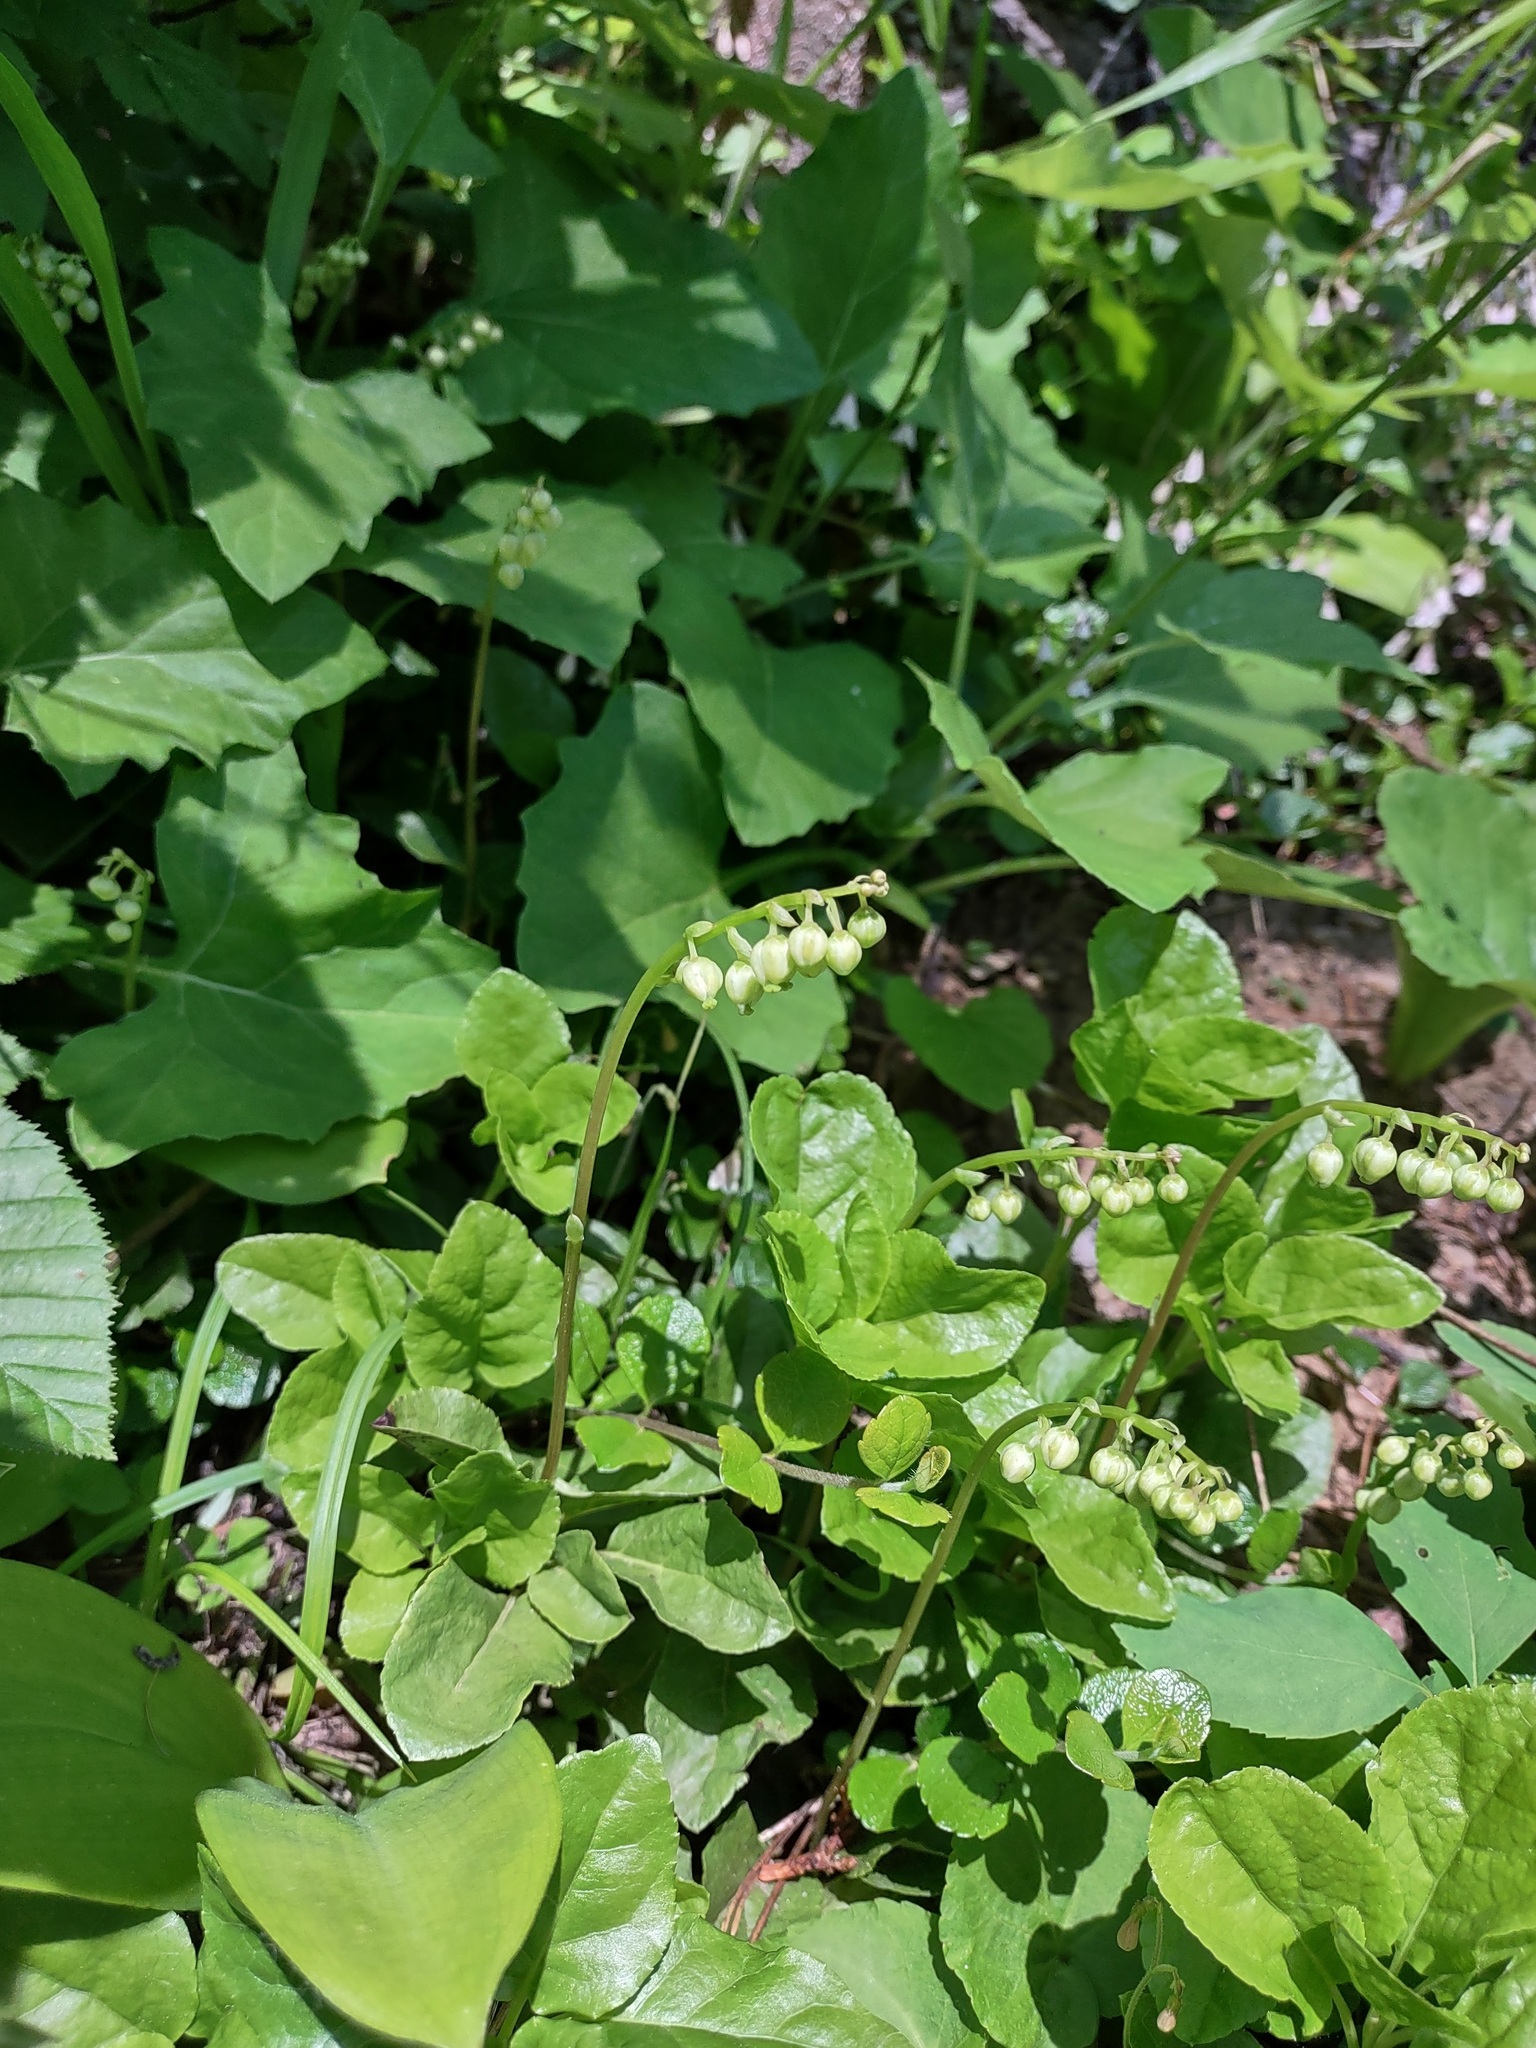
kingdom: Plantae
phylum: Tracheophyta
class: Magnoliopsida
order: Ericales
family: Ericaceae
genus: Orthilia
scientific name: Orthilia secunda
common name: One-sided orthilia
